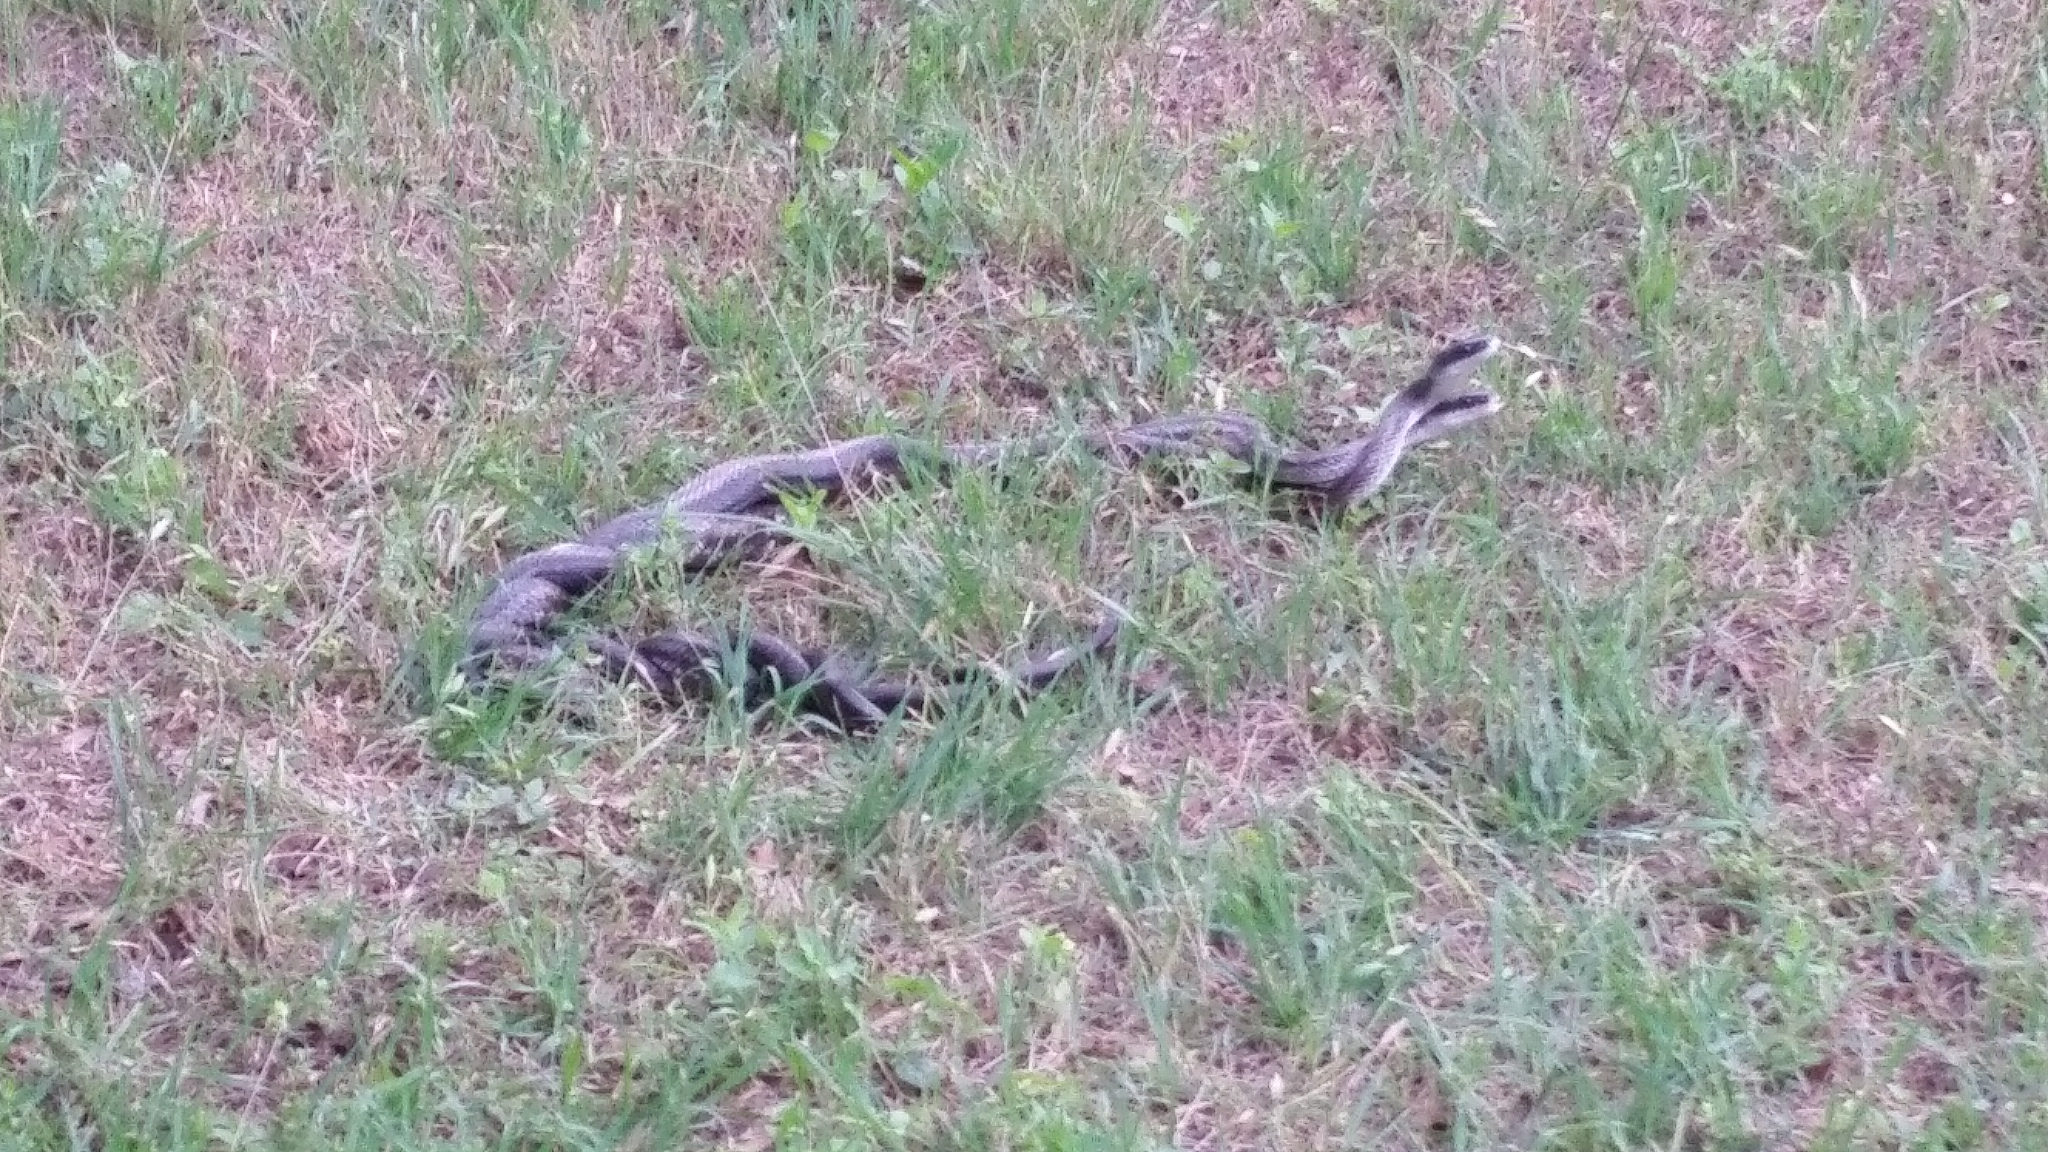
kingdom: Animalia
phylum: Chordata
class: Squamata
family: Colubridae
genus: Pantherophis
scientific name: Pantherophis obsoletus
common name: Black rat snake
